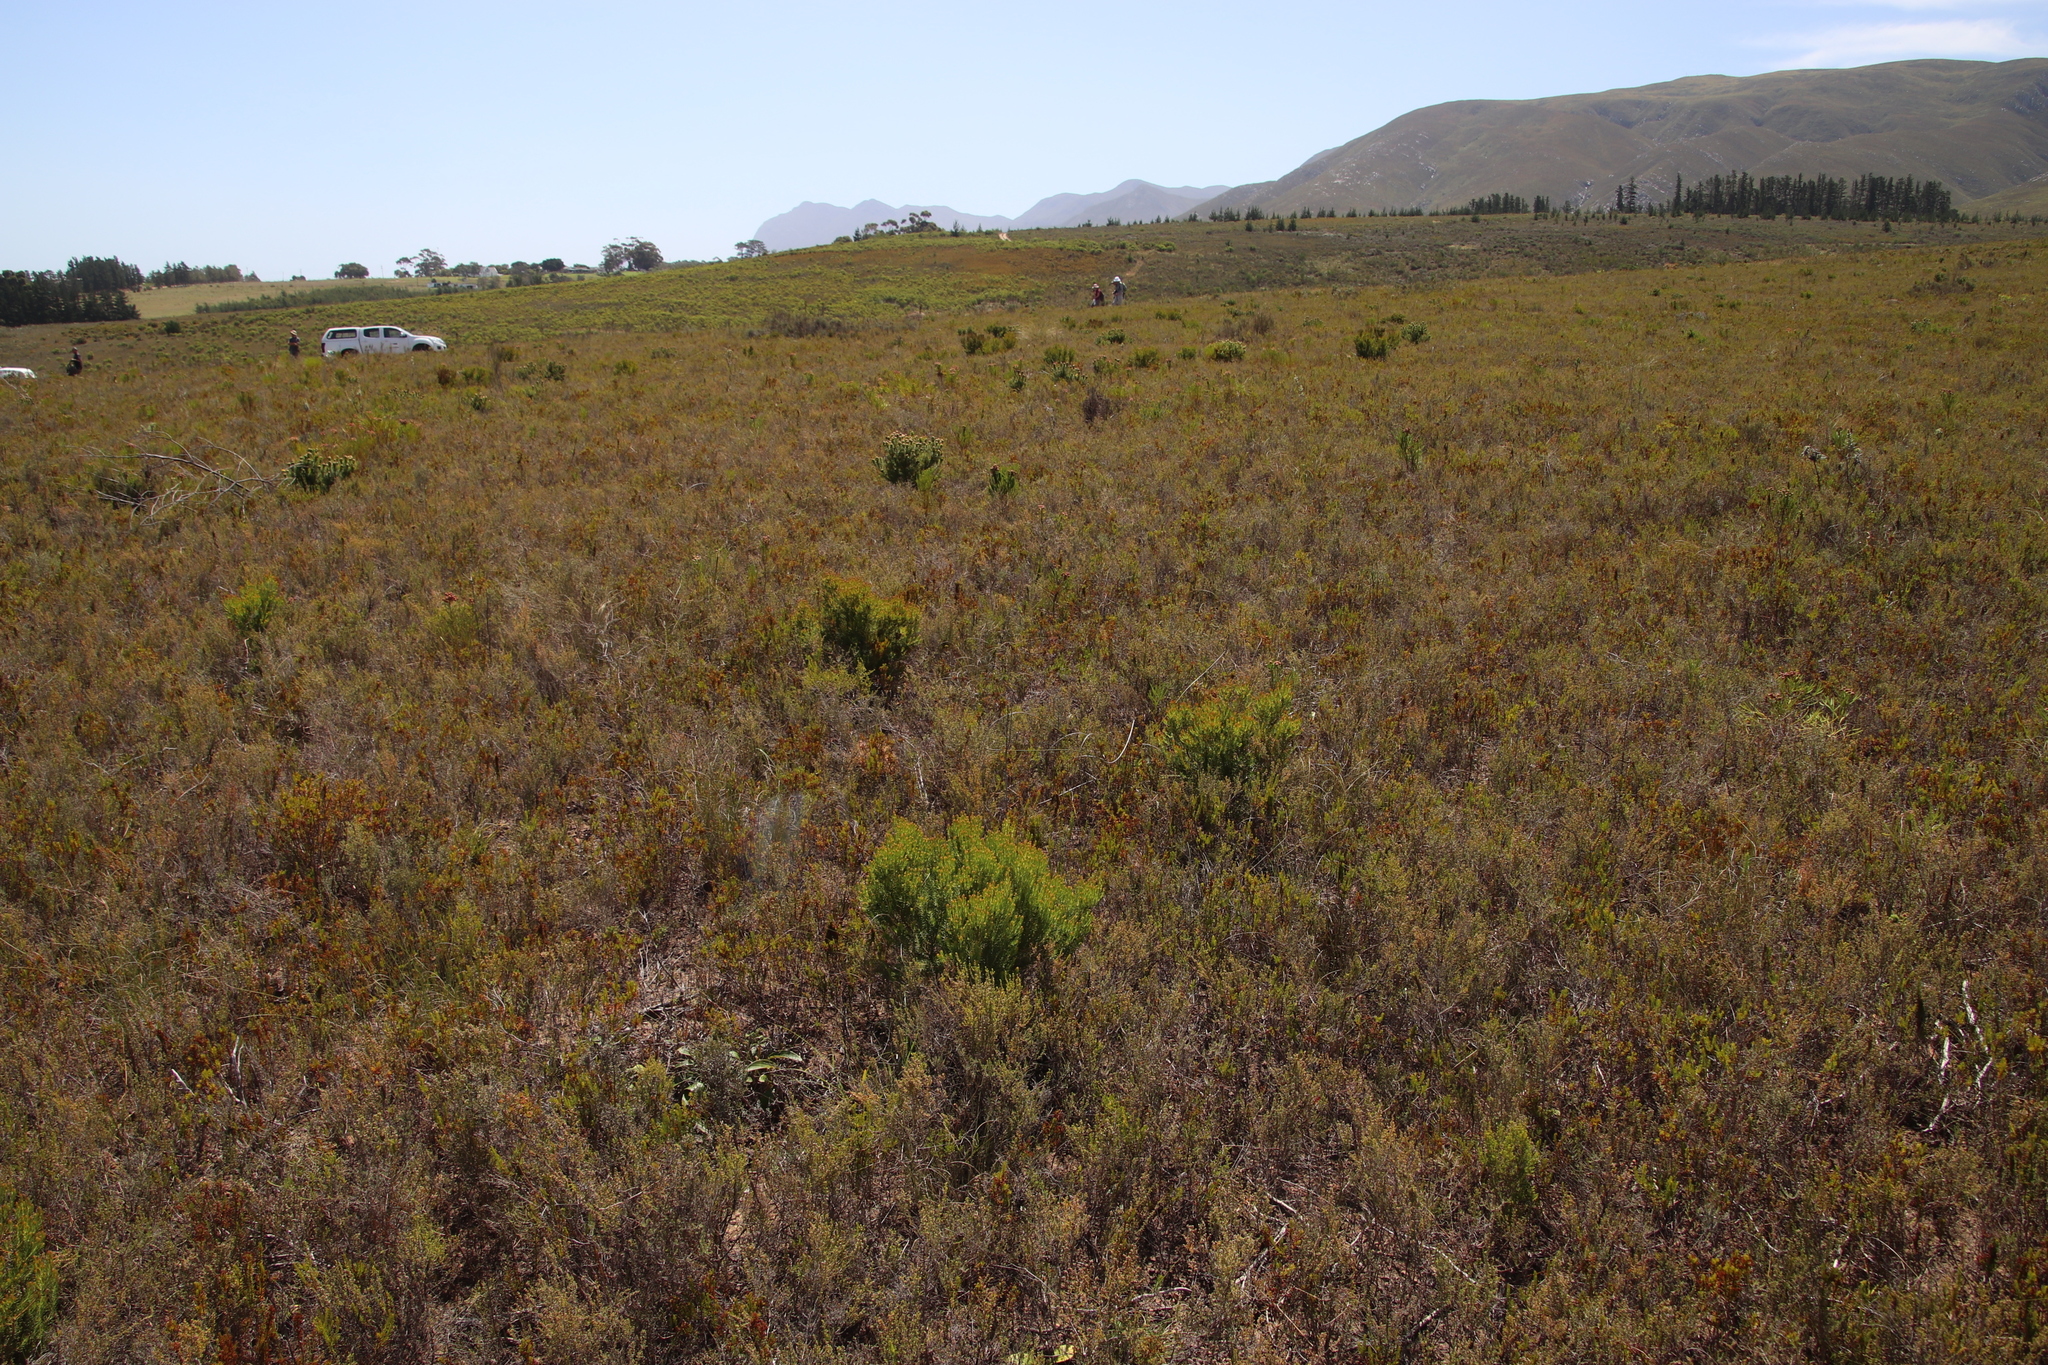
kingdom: Plantae
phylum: Tracheophyta
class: Magnoliopsida
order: Proteales
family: Proteaceae
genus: Leucadendron
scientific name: Leucadendron teretifolium
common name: Needle-leaf conebush
